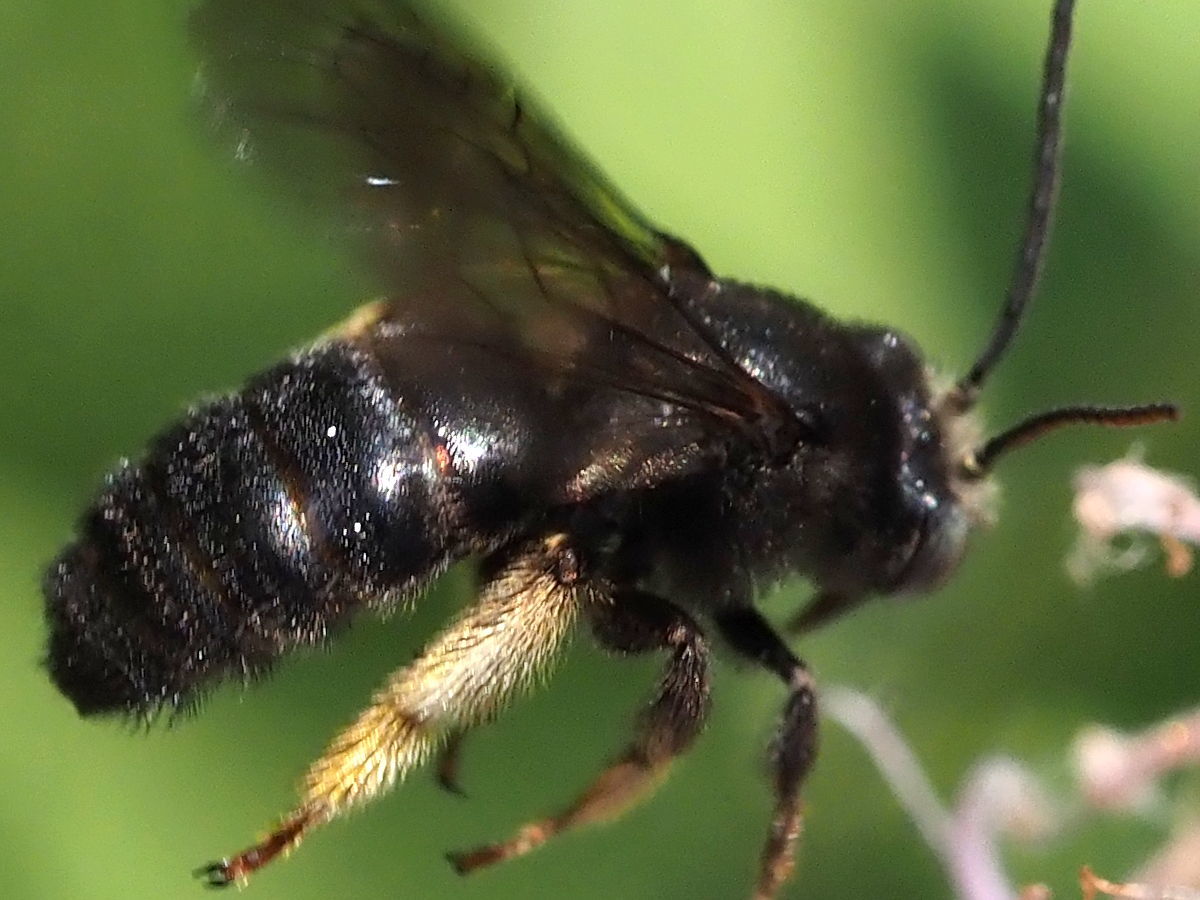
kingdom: Animalia
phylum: Arthropoda
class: Insecta
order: Hymenoptera
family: Apidae
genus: Melissodes
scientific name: Melissodes bimaculatus
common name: Two-spotted long-horned bee
